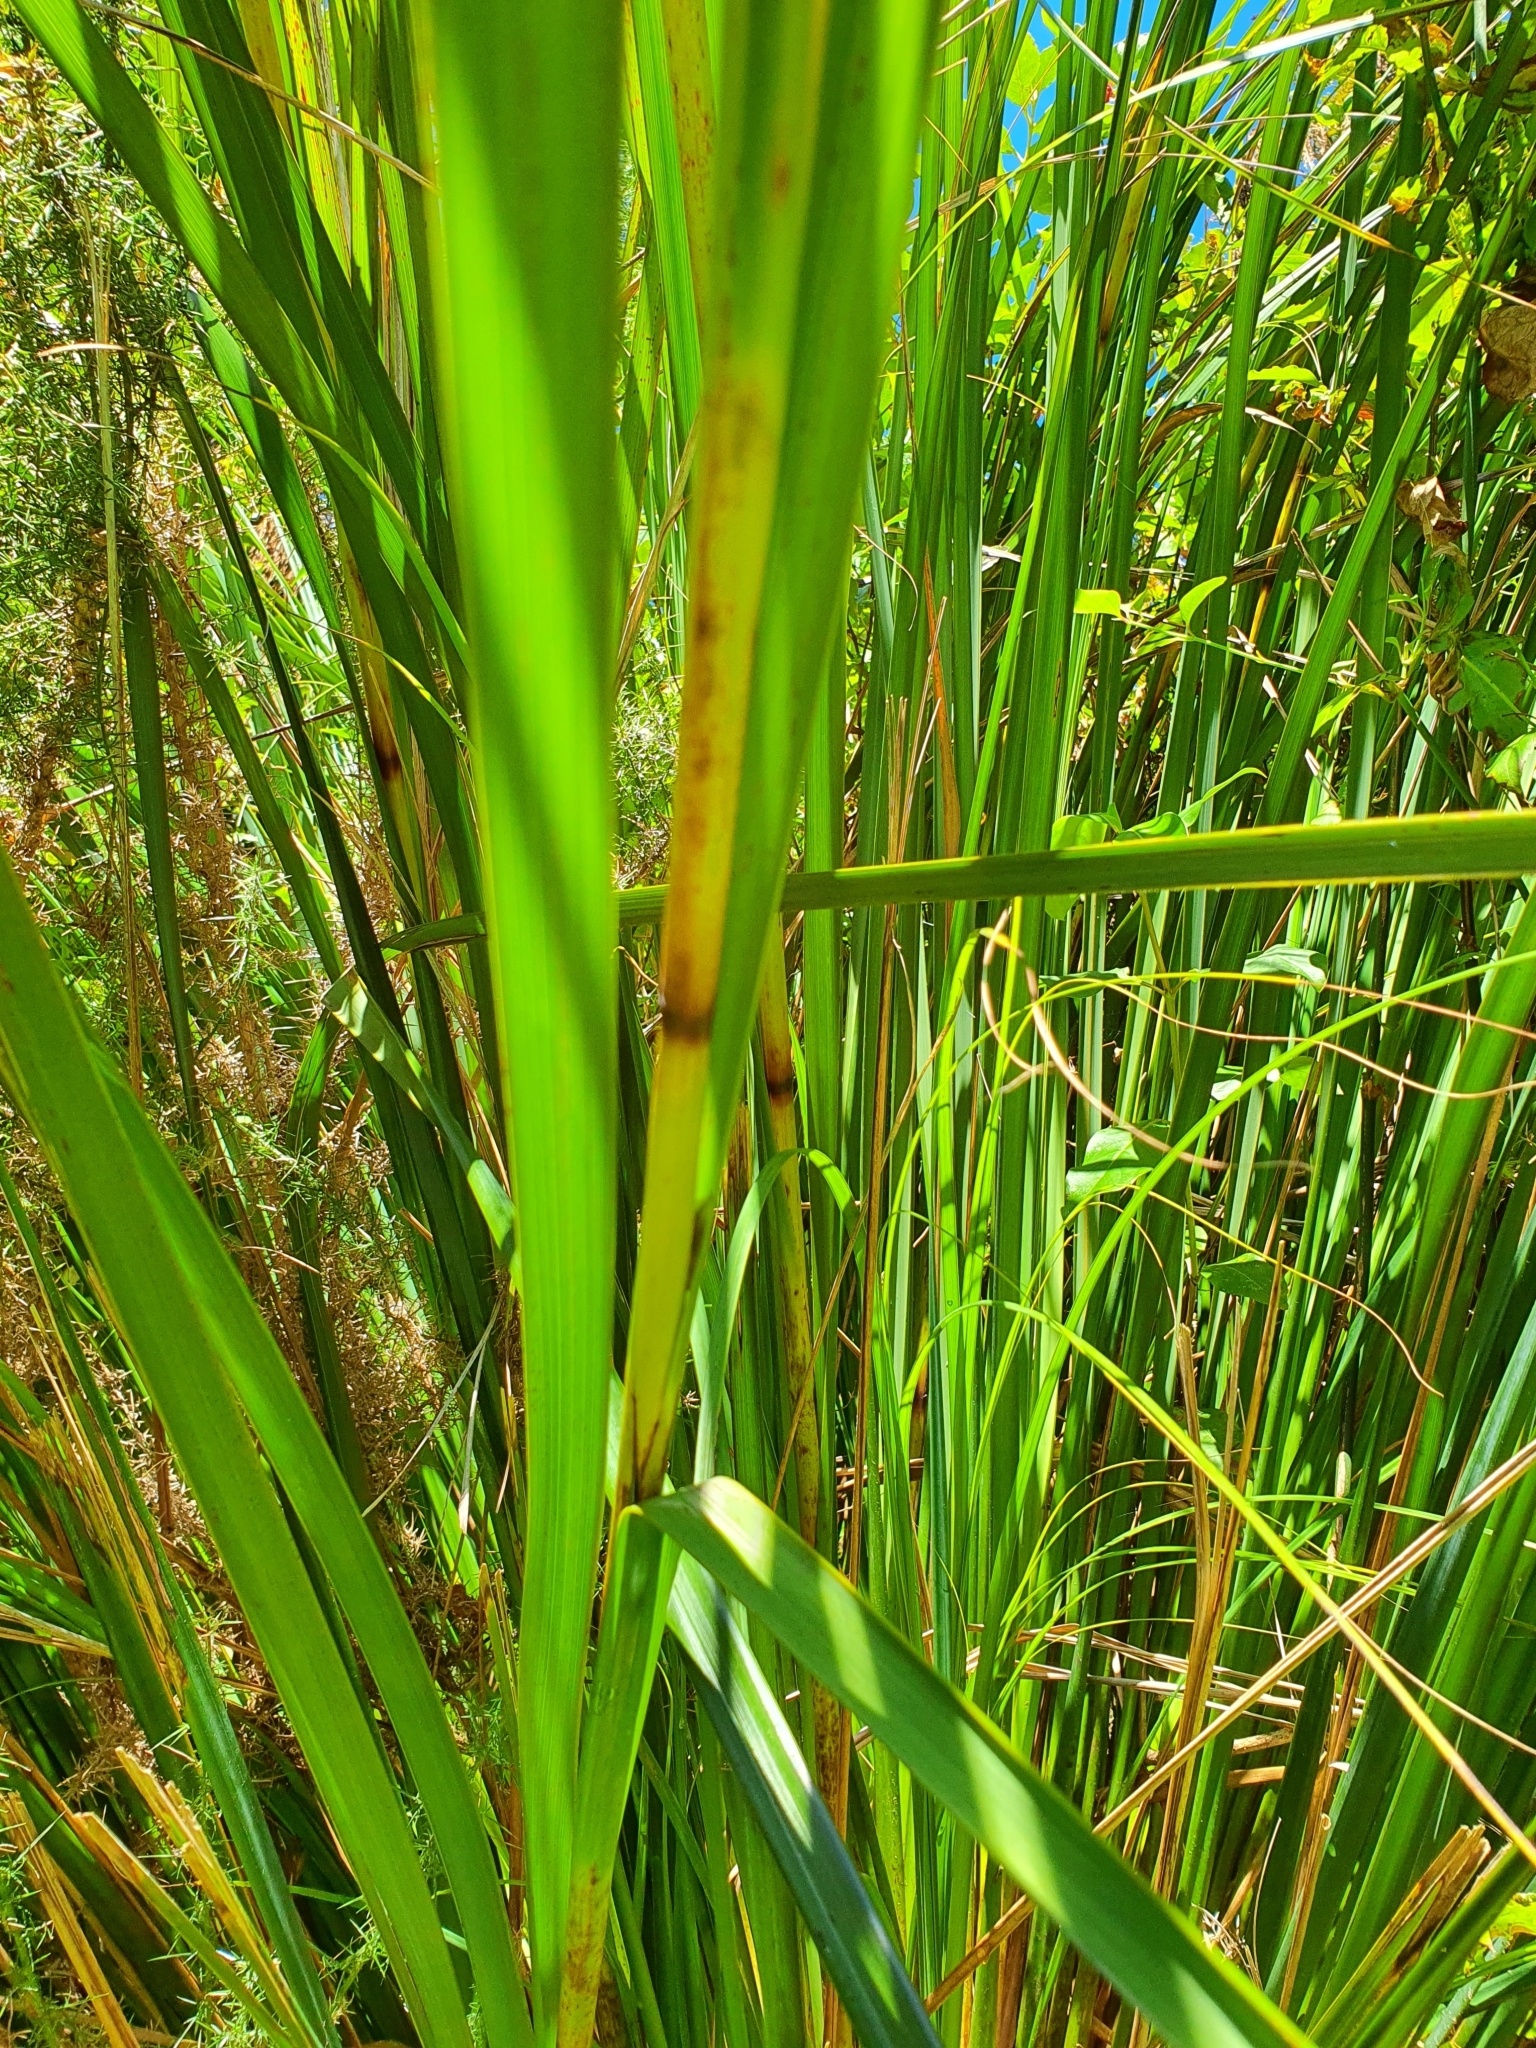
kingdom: Plantae
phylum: Tracheophyta
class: Liliopsida
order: Poales
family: Cyperaceae
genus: Gahnia
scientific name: Gahnia setifolia
